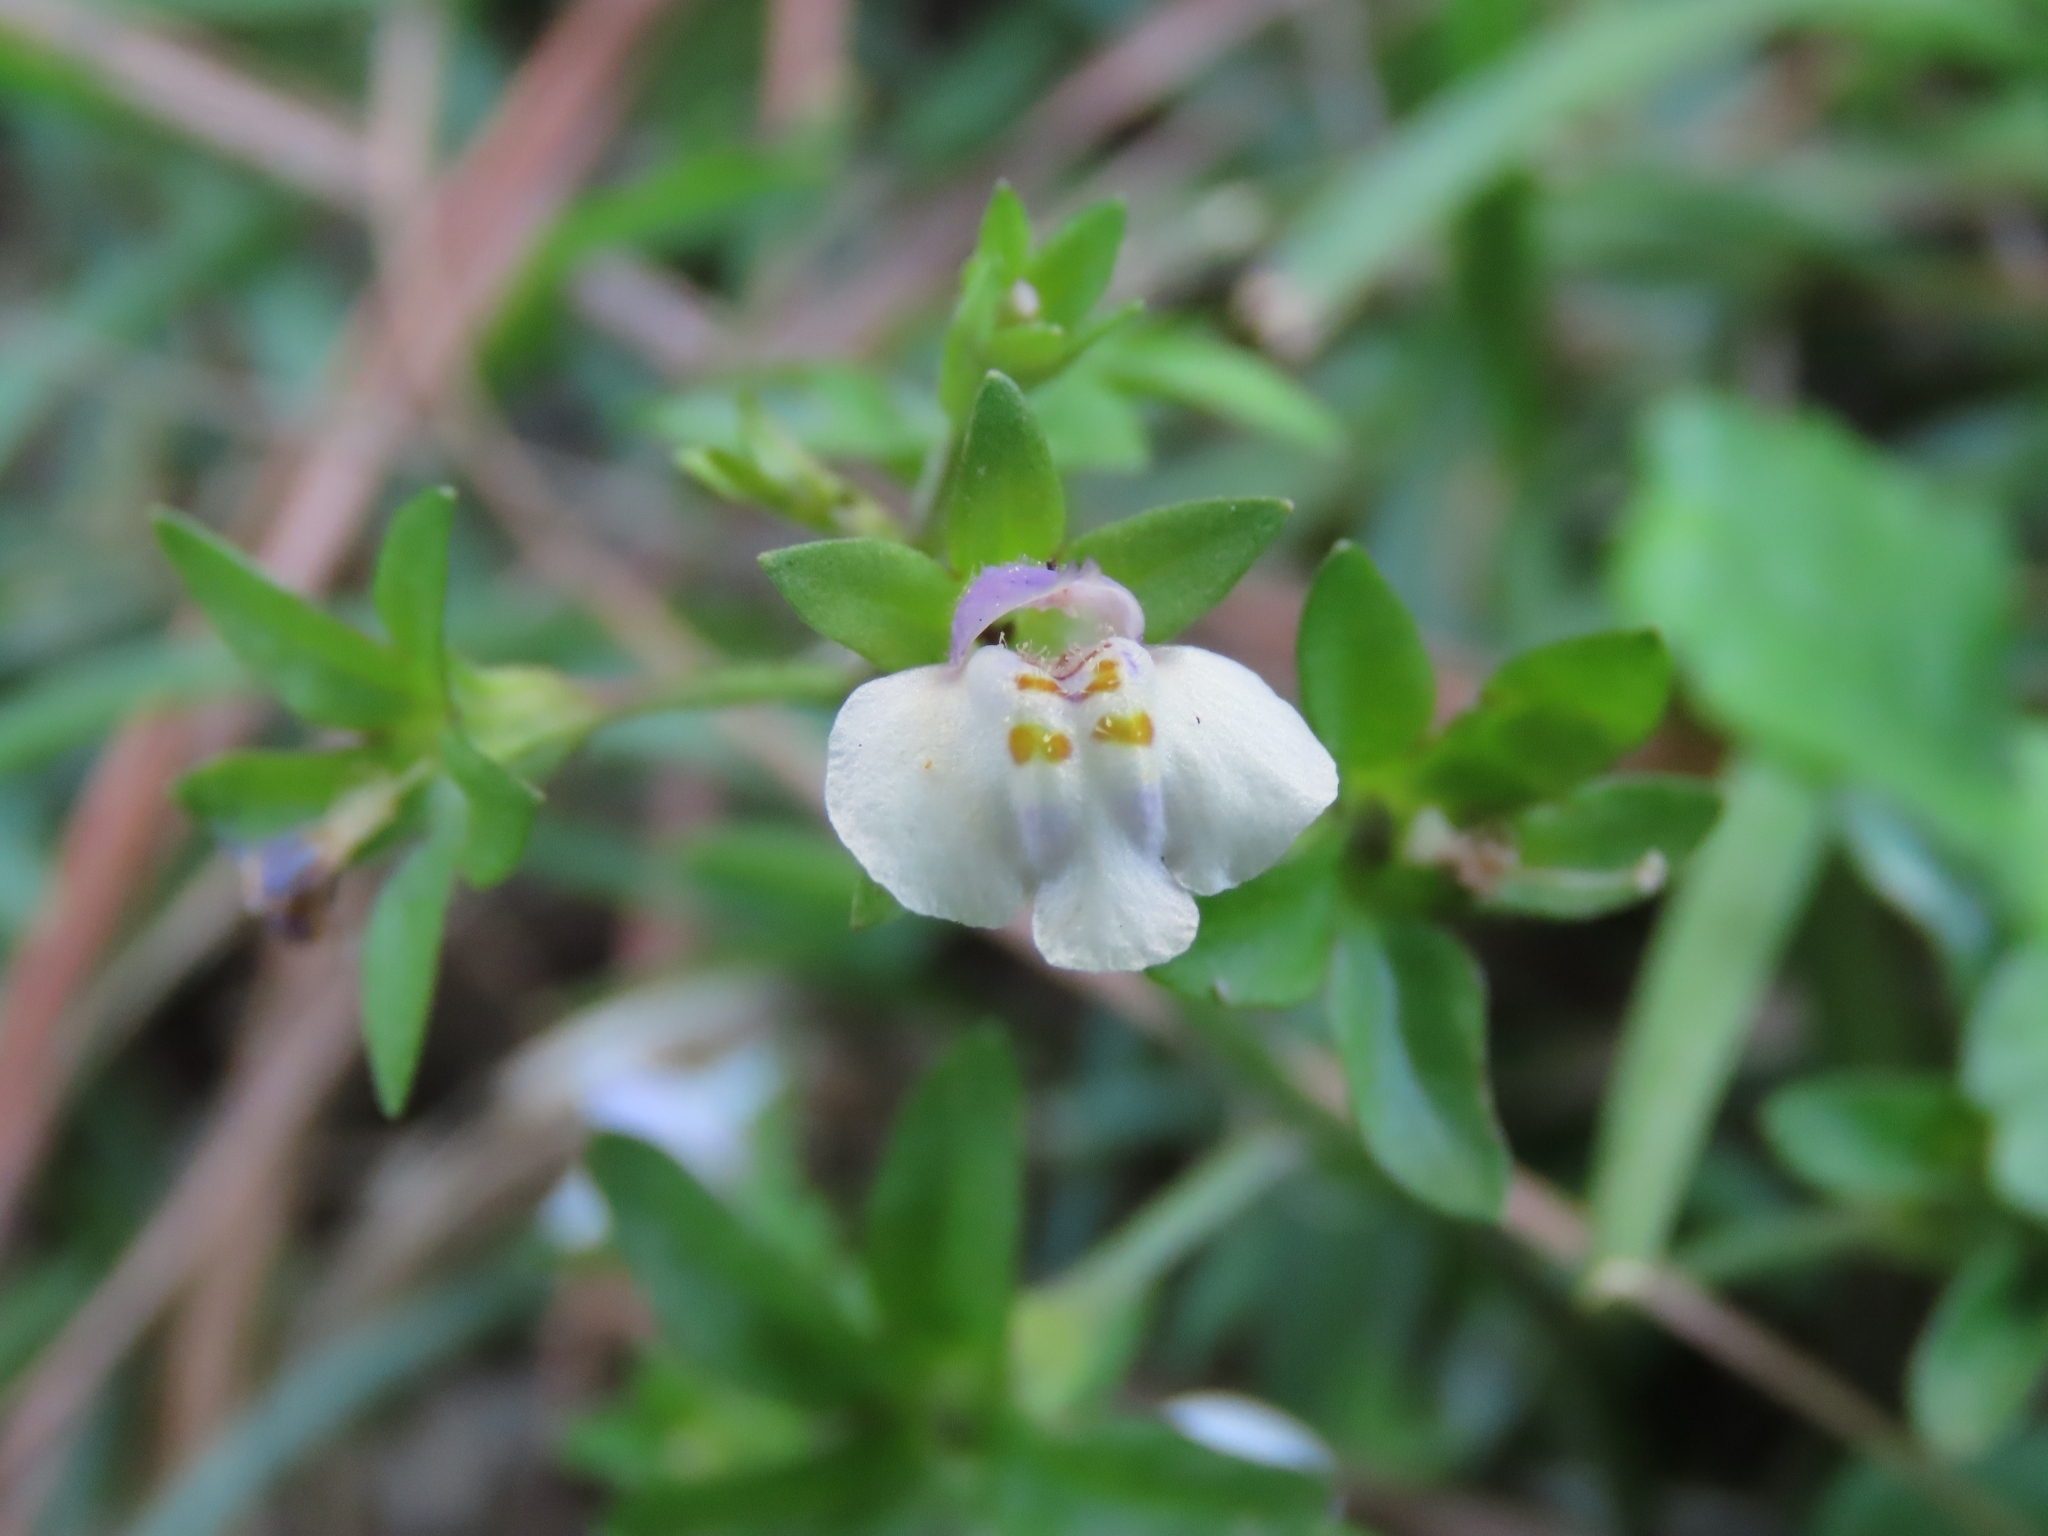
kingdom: Plantae
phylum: Tracheophyta
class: Magnoliopsida
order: Lamiales
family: Mazaceae
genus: Mazus
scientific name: Mazus pumilus
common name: Japanese mazus
